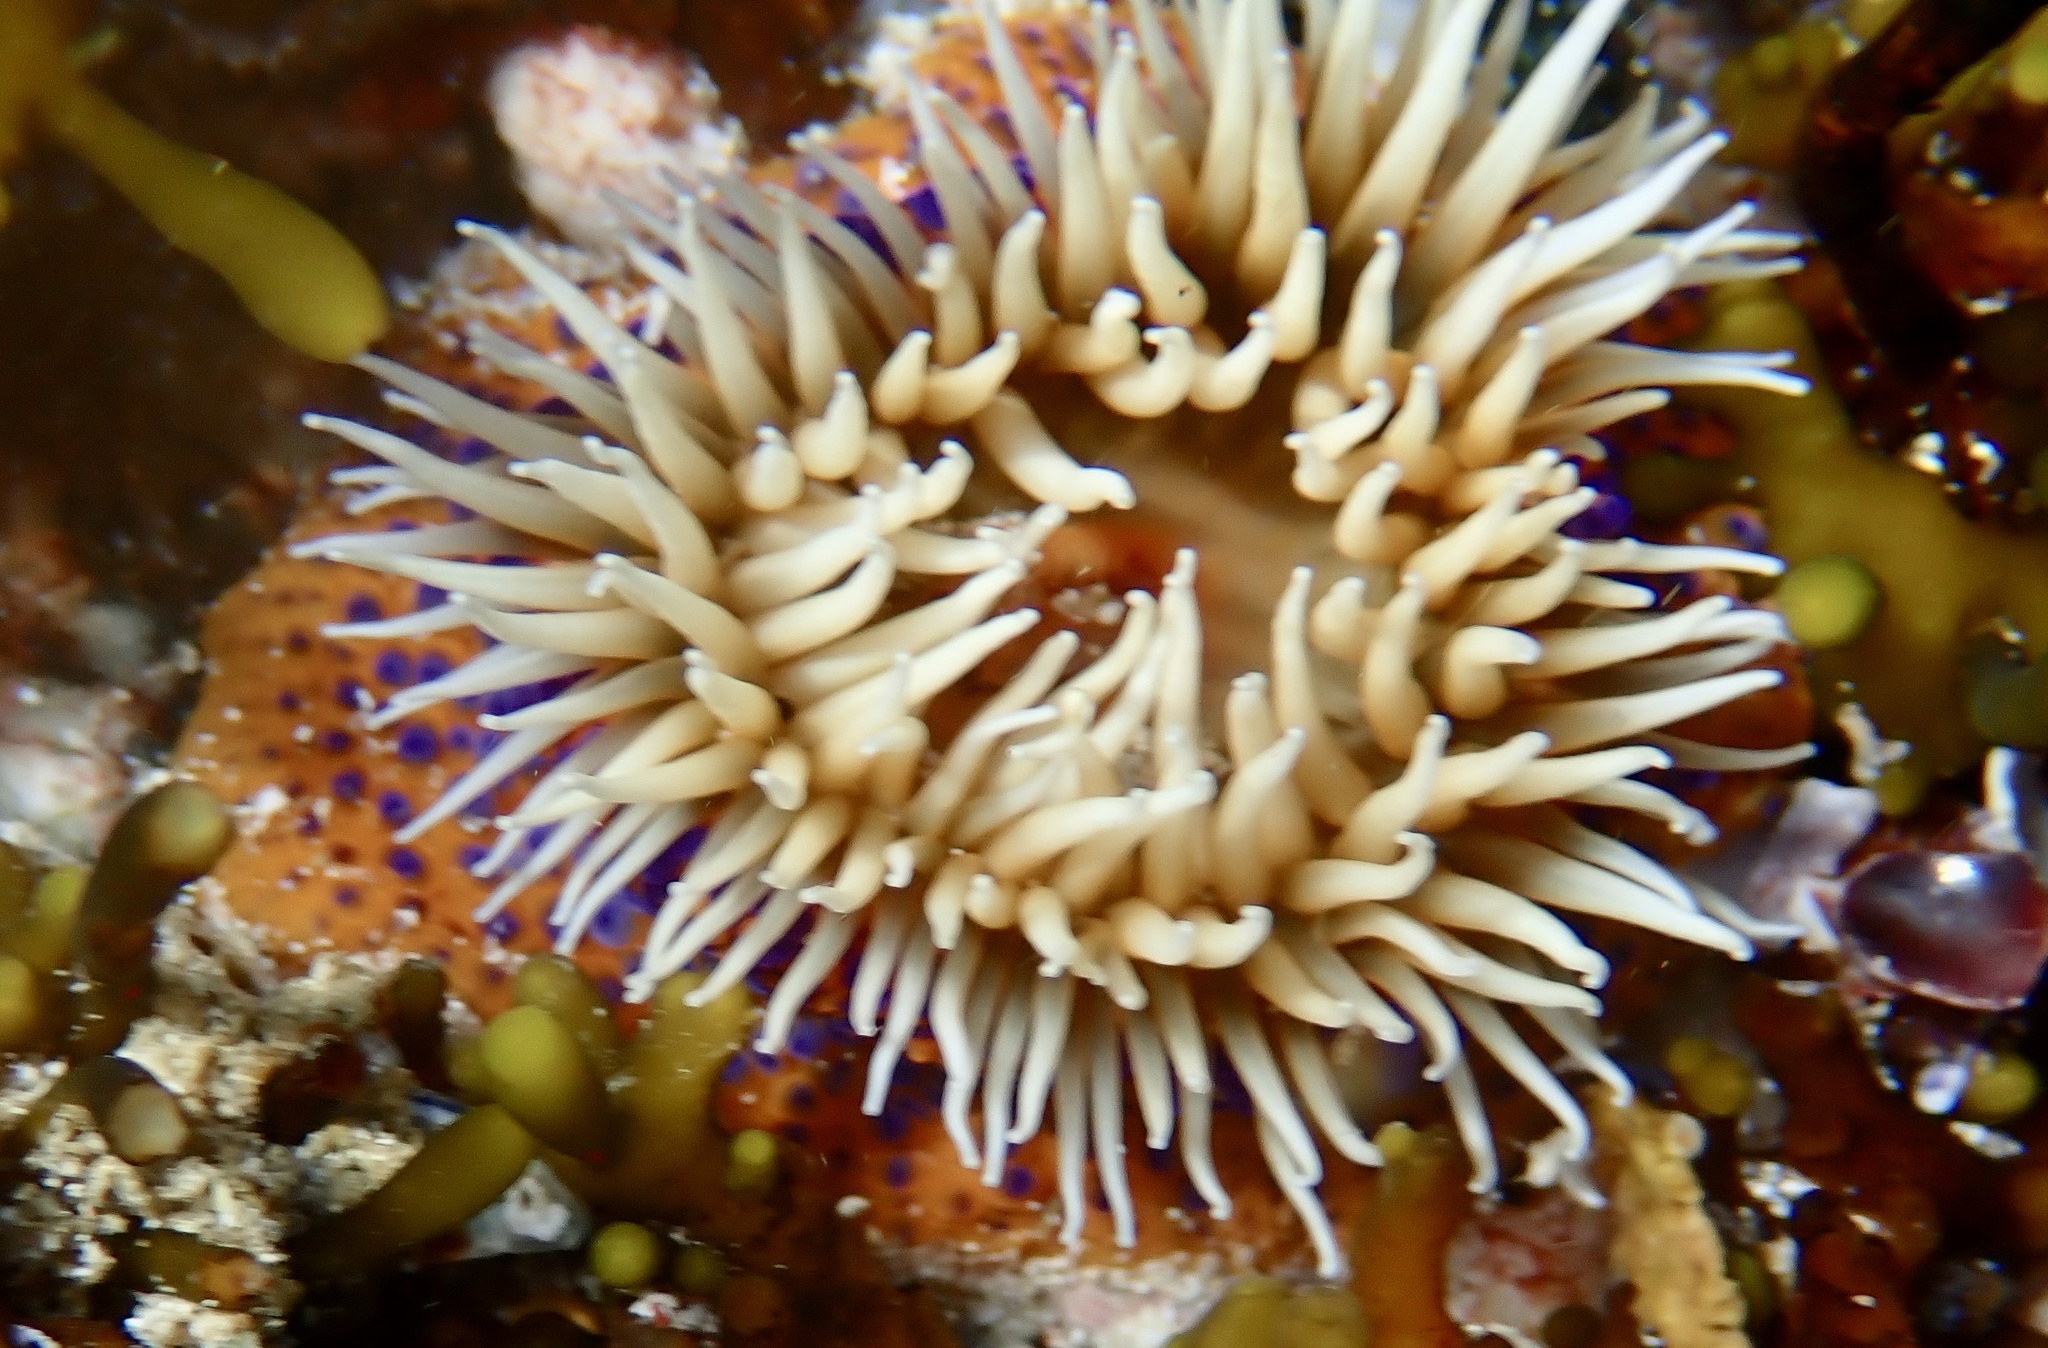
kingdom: Animalia
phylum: Cnidaria
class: Anthozoa
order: Actiniaria
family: Actiniidae
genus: Bunodosoma
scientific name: Bunodosoma capense
